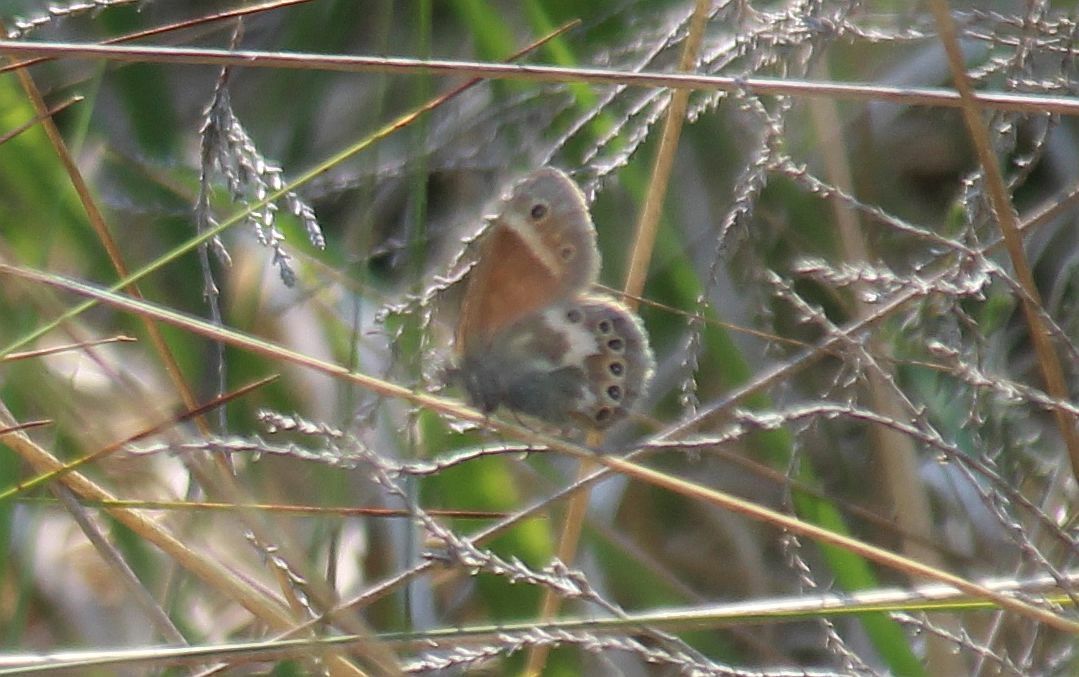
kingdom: Animalia
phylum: Arthropoda
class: Insecta
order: Lepidoptera
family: Nymphalidae
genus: Coenonympha
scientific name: Coenonympha tullia
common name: Large heath
